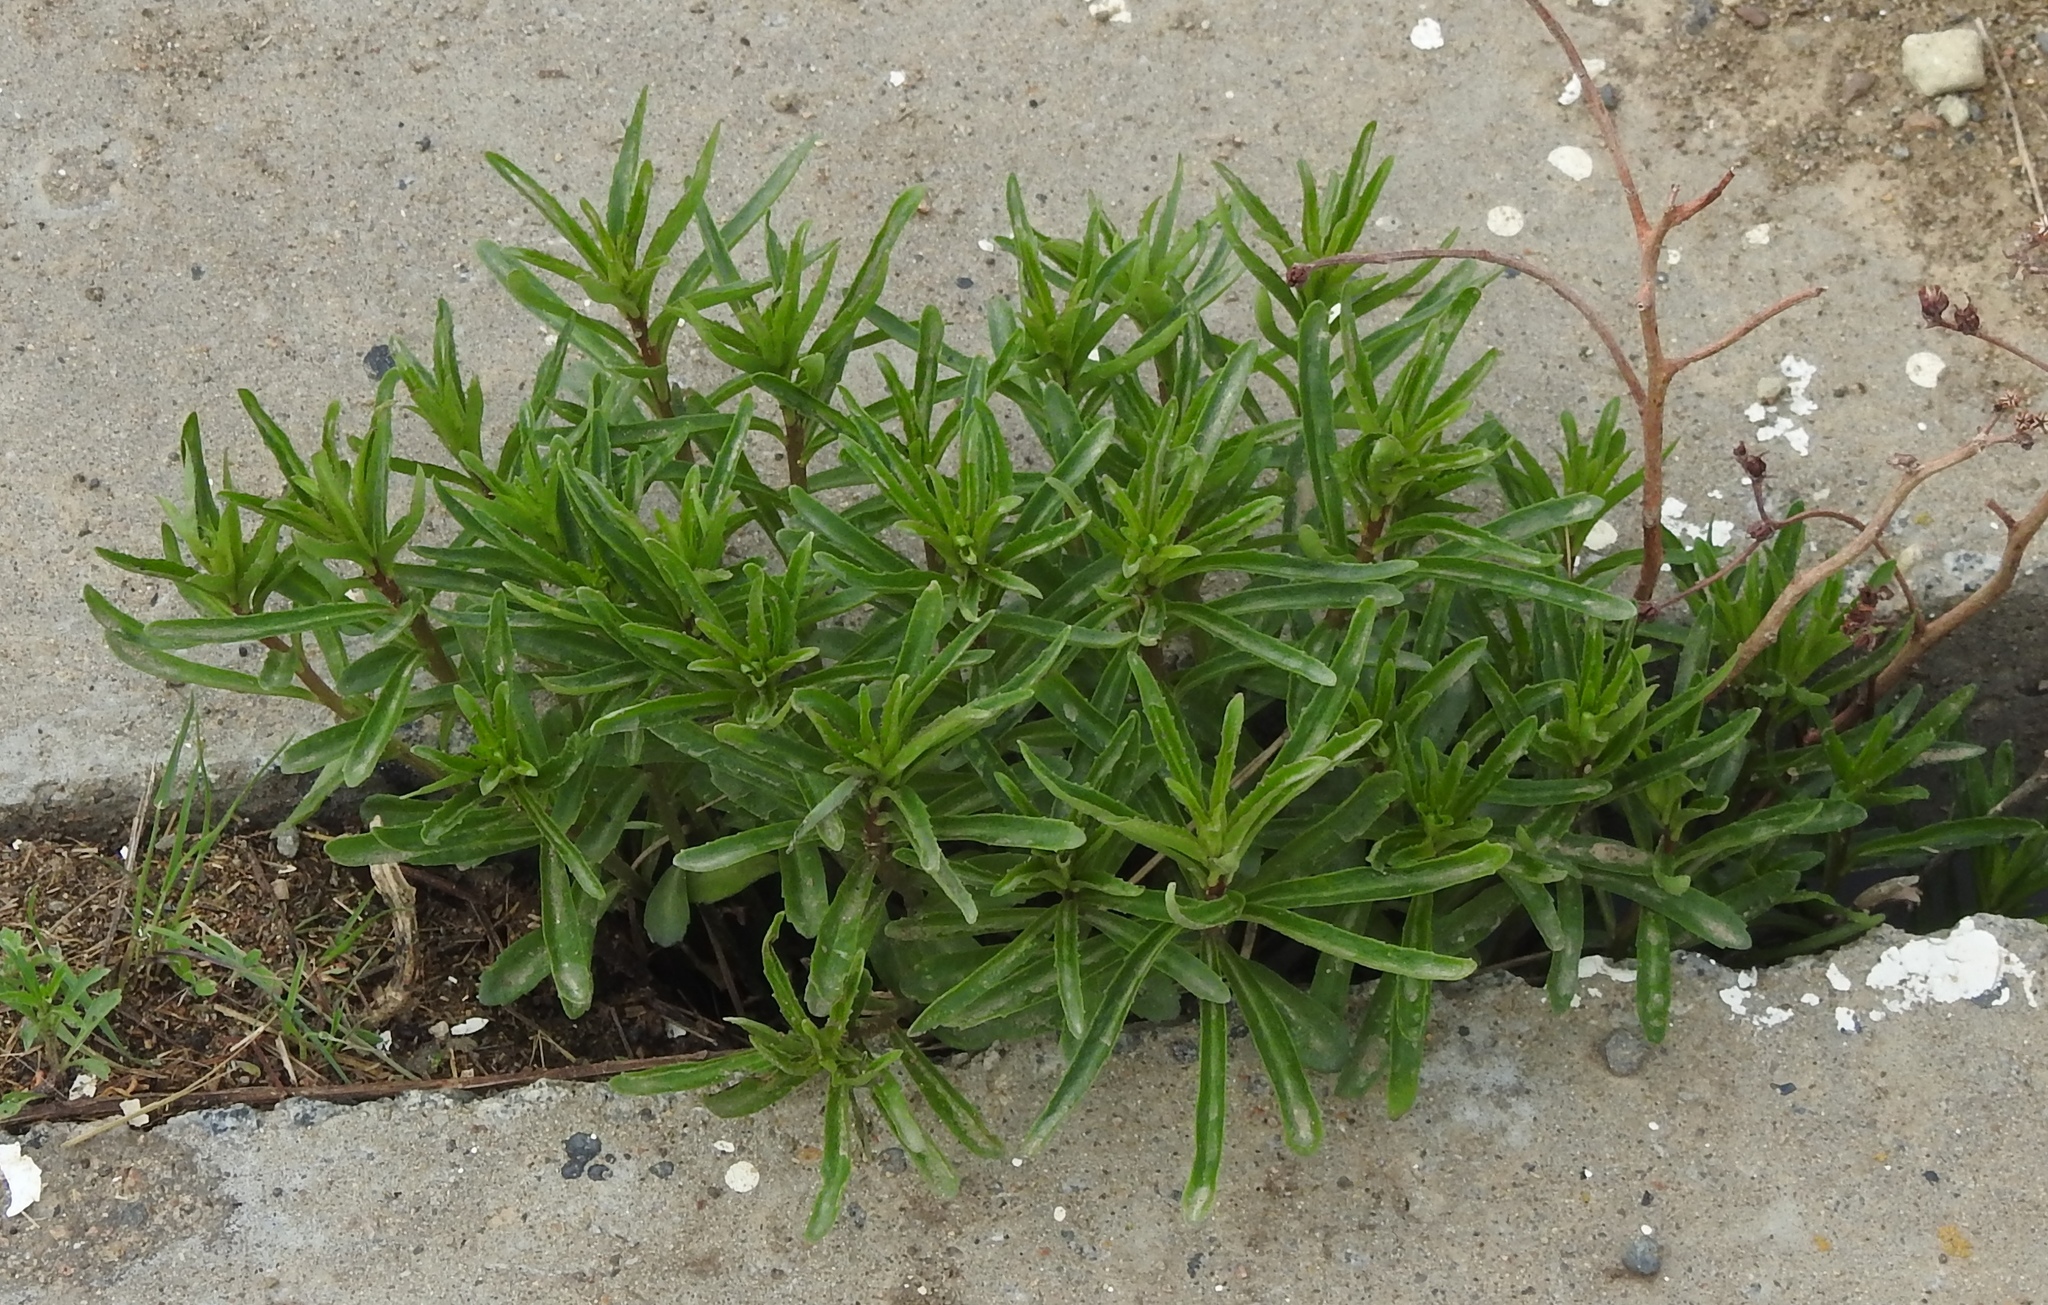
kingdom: Plantae
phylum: Tracheophyta
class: Magnoliopsida
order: Saxifragales
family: Crassulaceae
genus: Phedimus
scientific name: Phedimus aizoon
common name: Orpin aizoon
